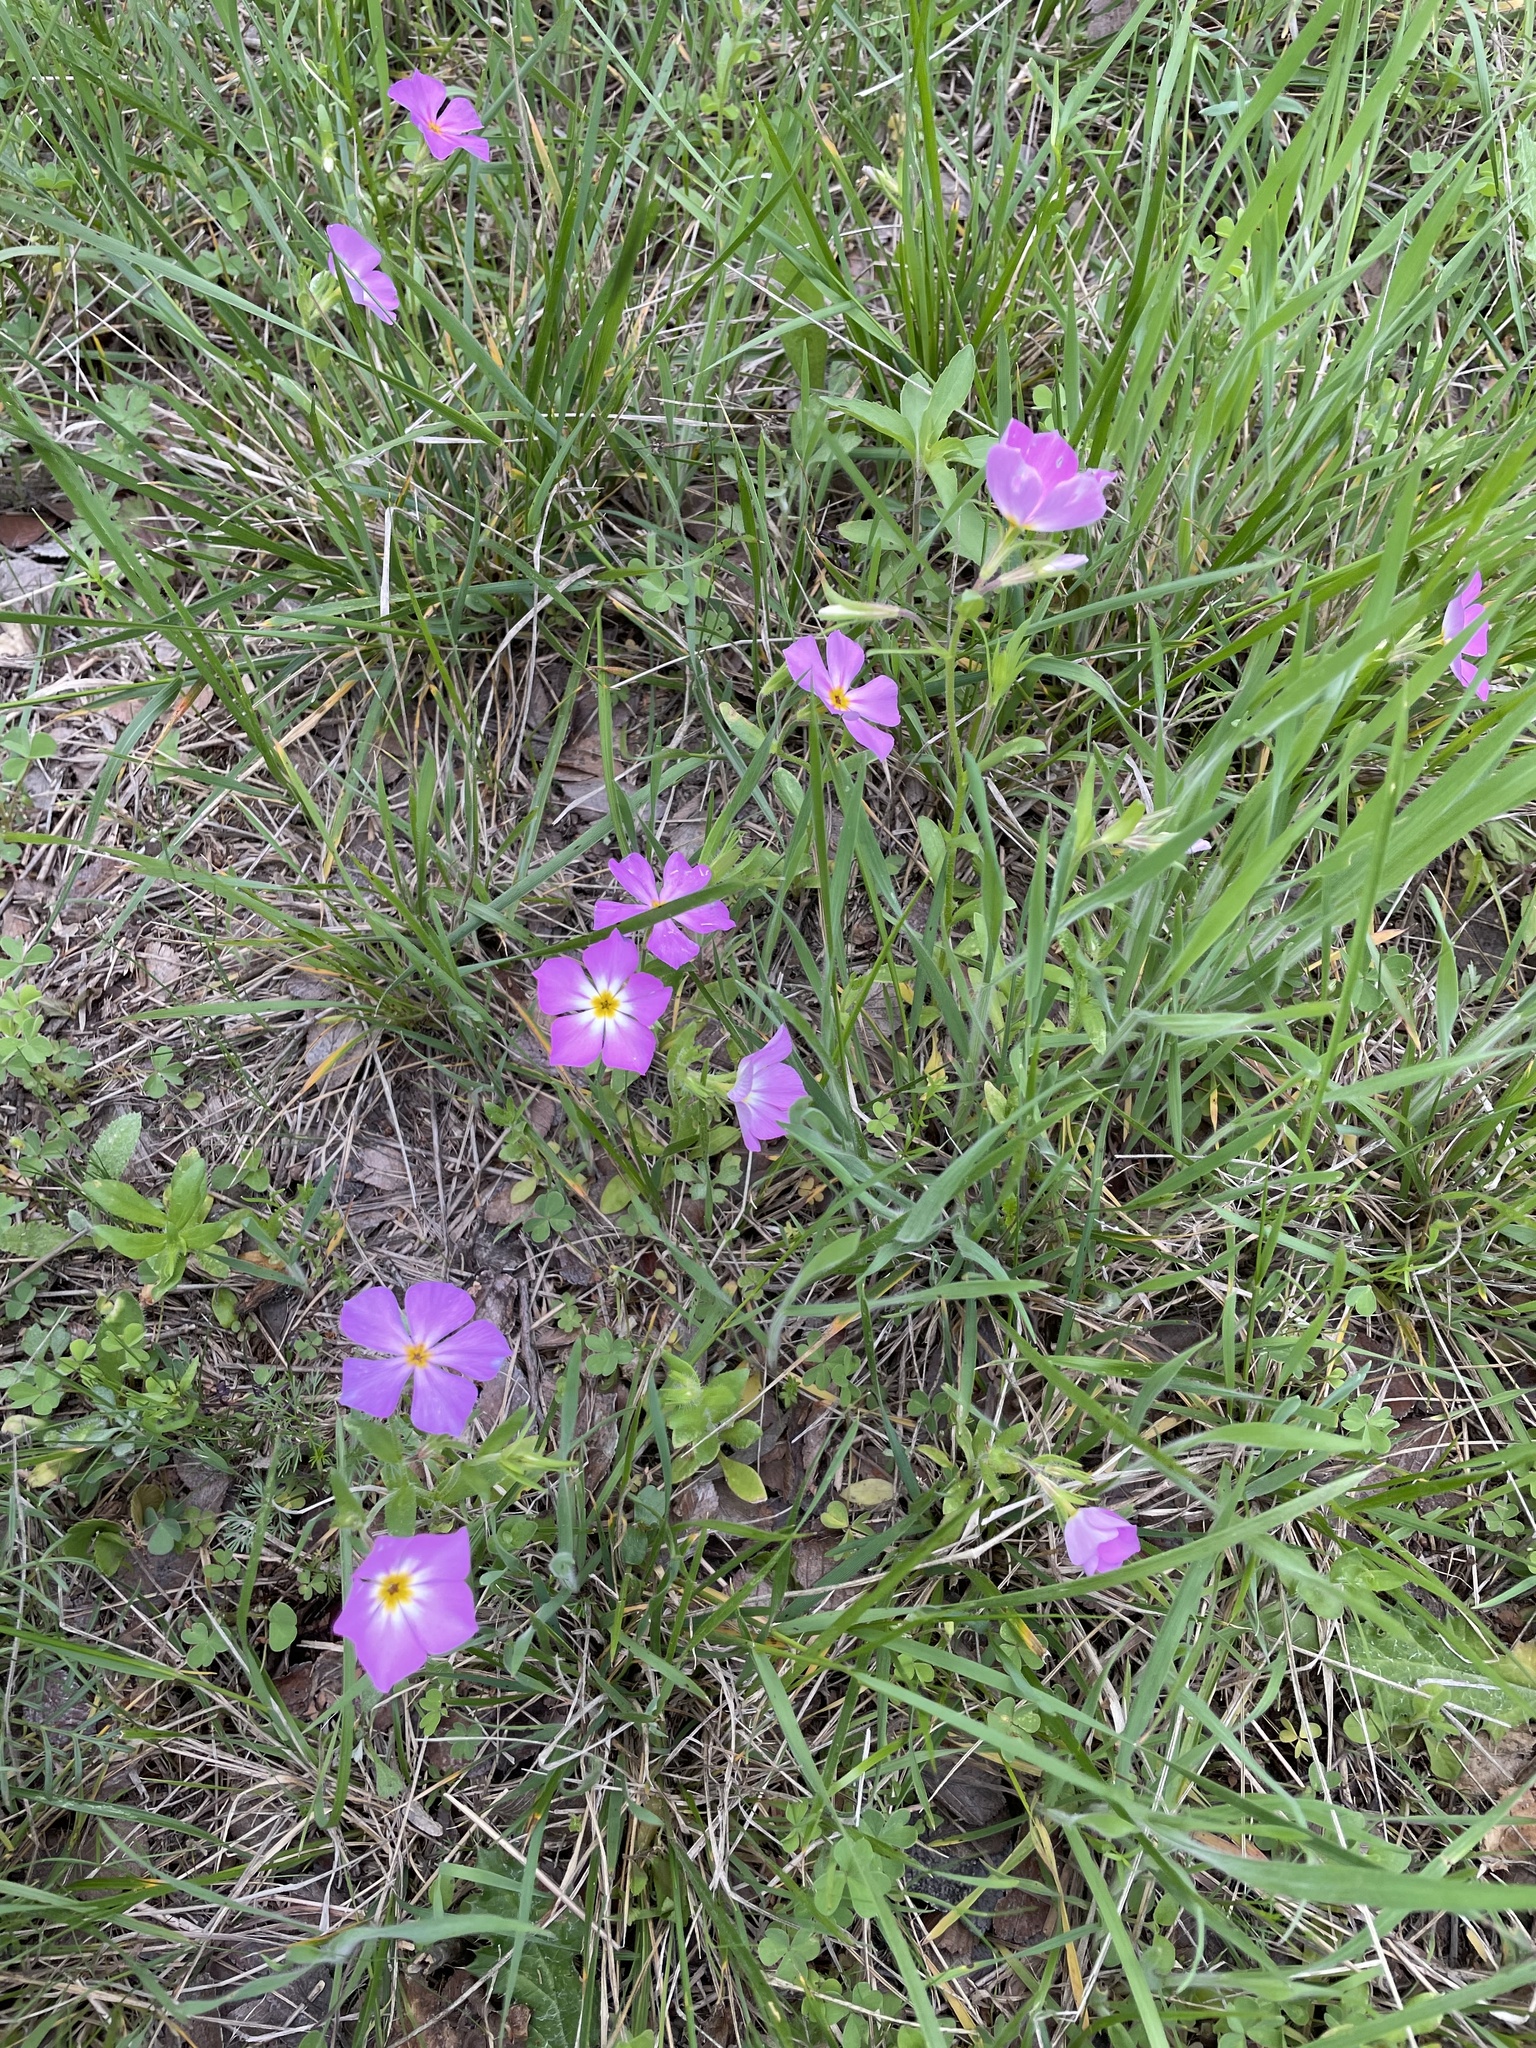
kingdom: Plantae
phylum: Tracheophyta
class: Magnoliopsida
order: Ericales
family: Polemoniaceae
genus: Phlox
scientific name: Phlox roemeriana
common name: Roemer's phlox
